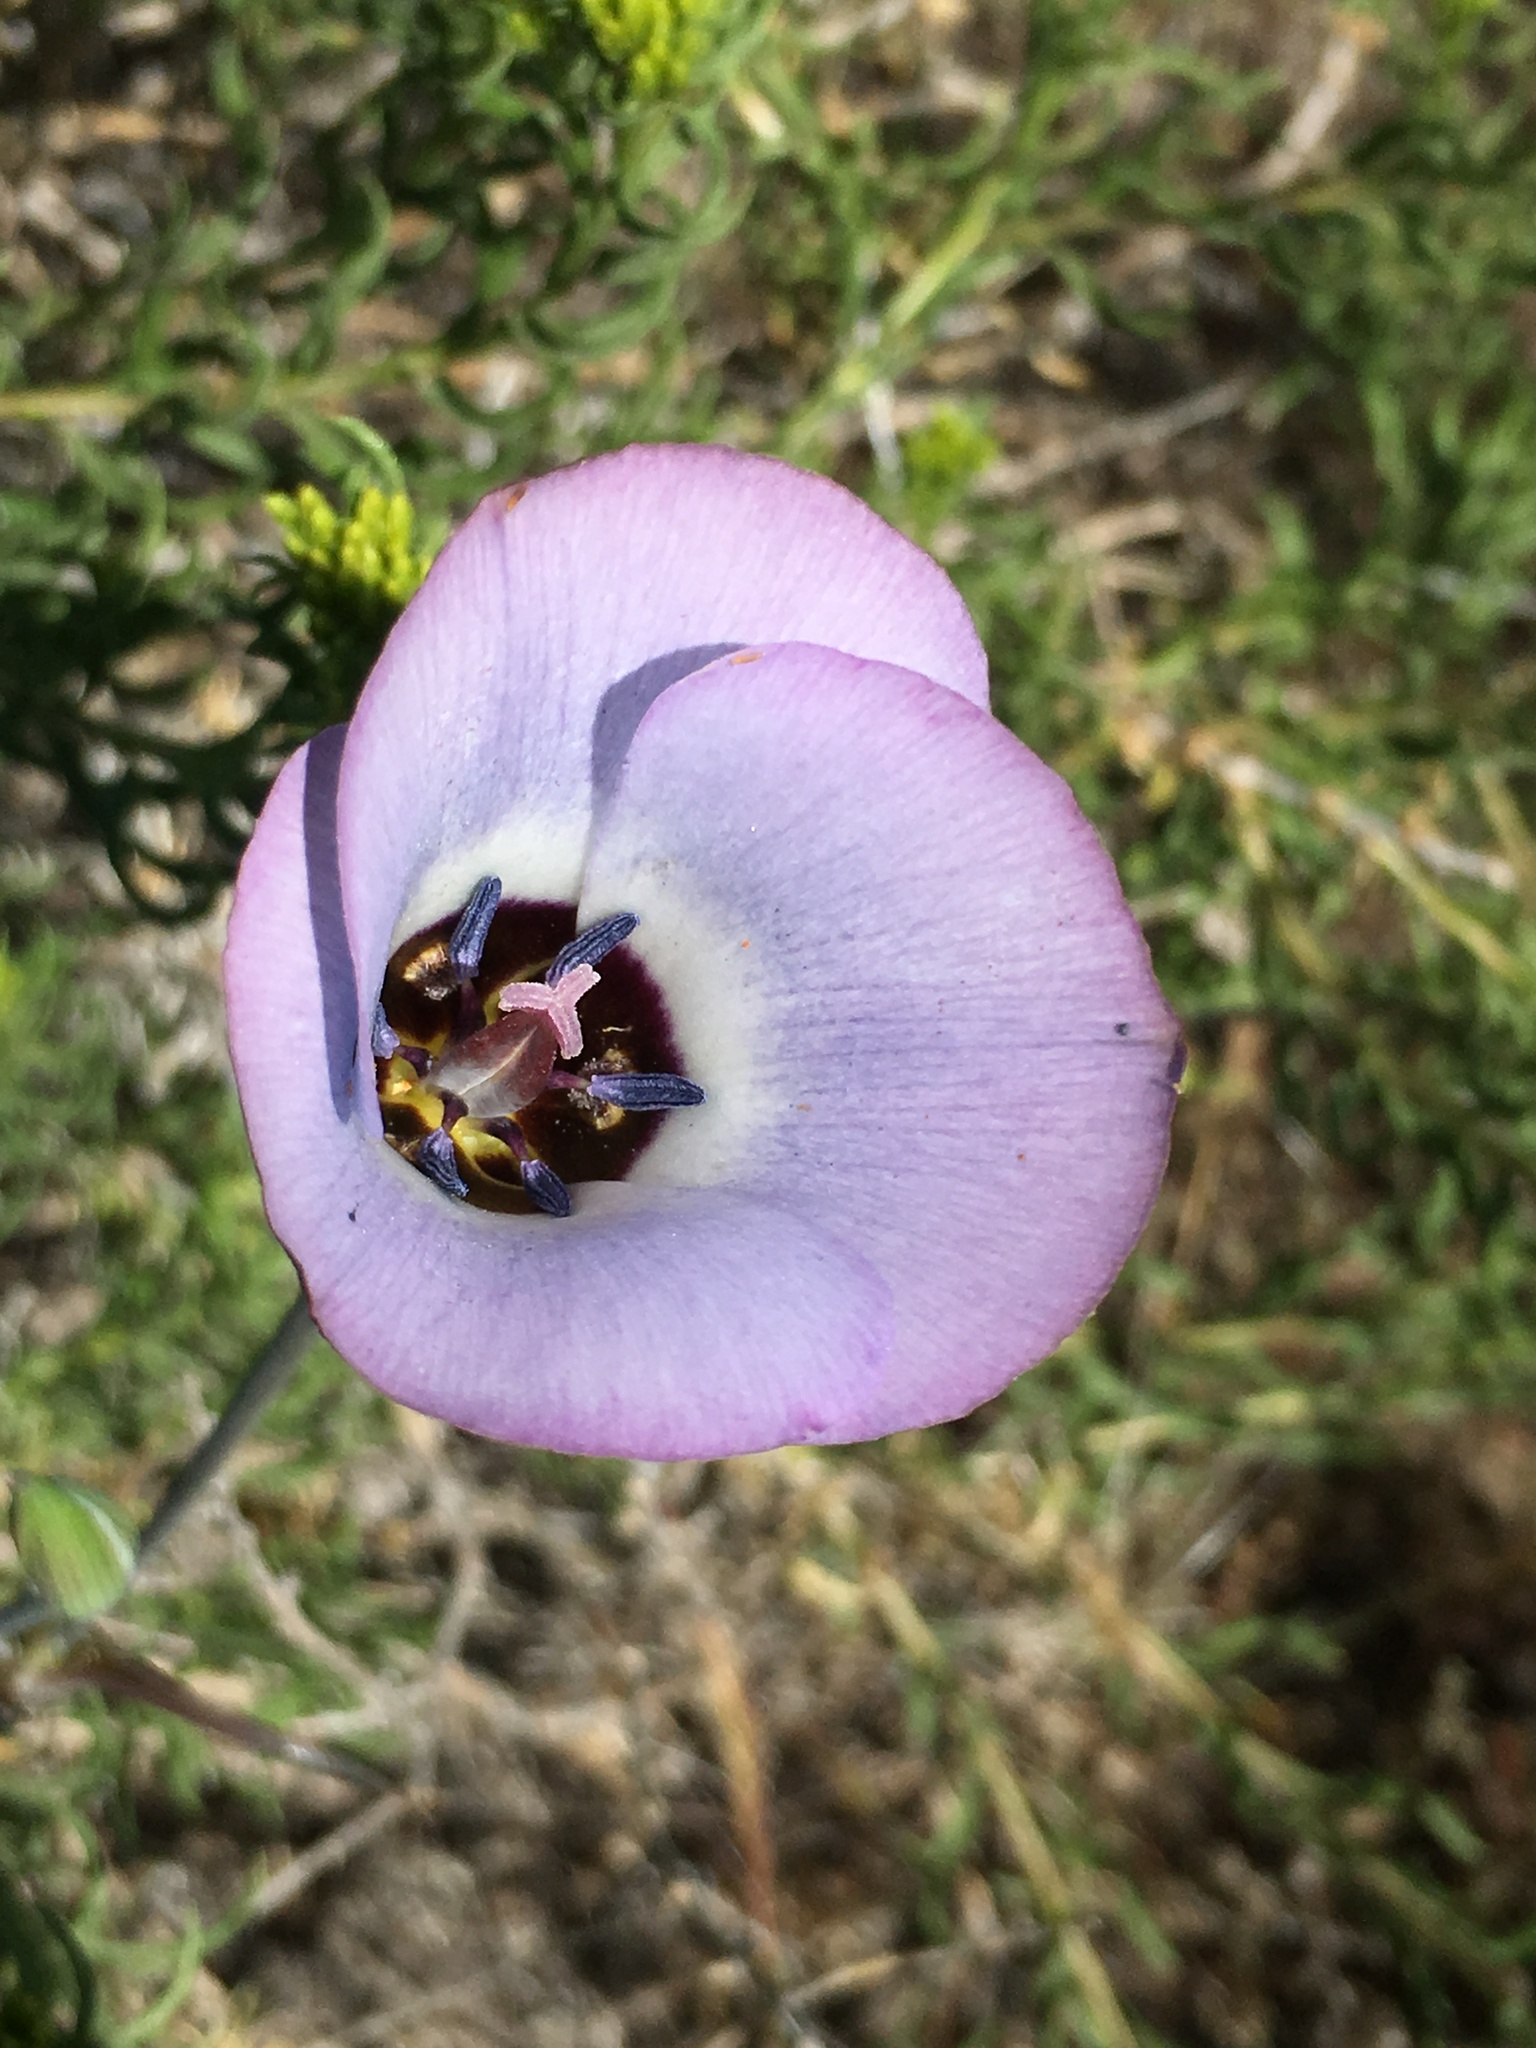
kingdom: Plantae
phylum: Tracheophyta
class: Liliopsida
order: Liliales
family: Liliaceae
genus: Calochortus
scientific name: Calochortus invenustus
